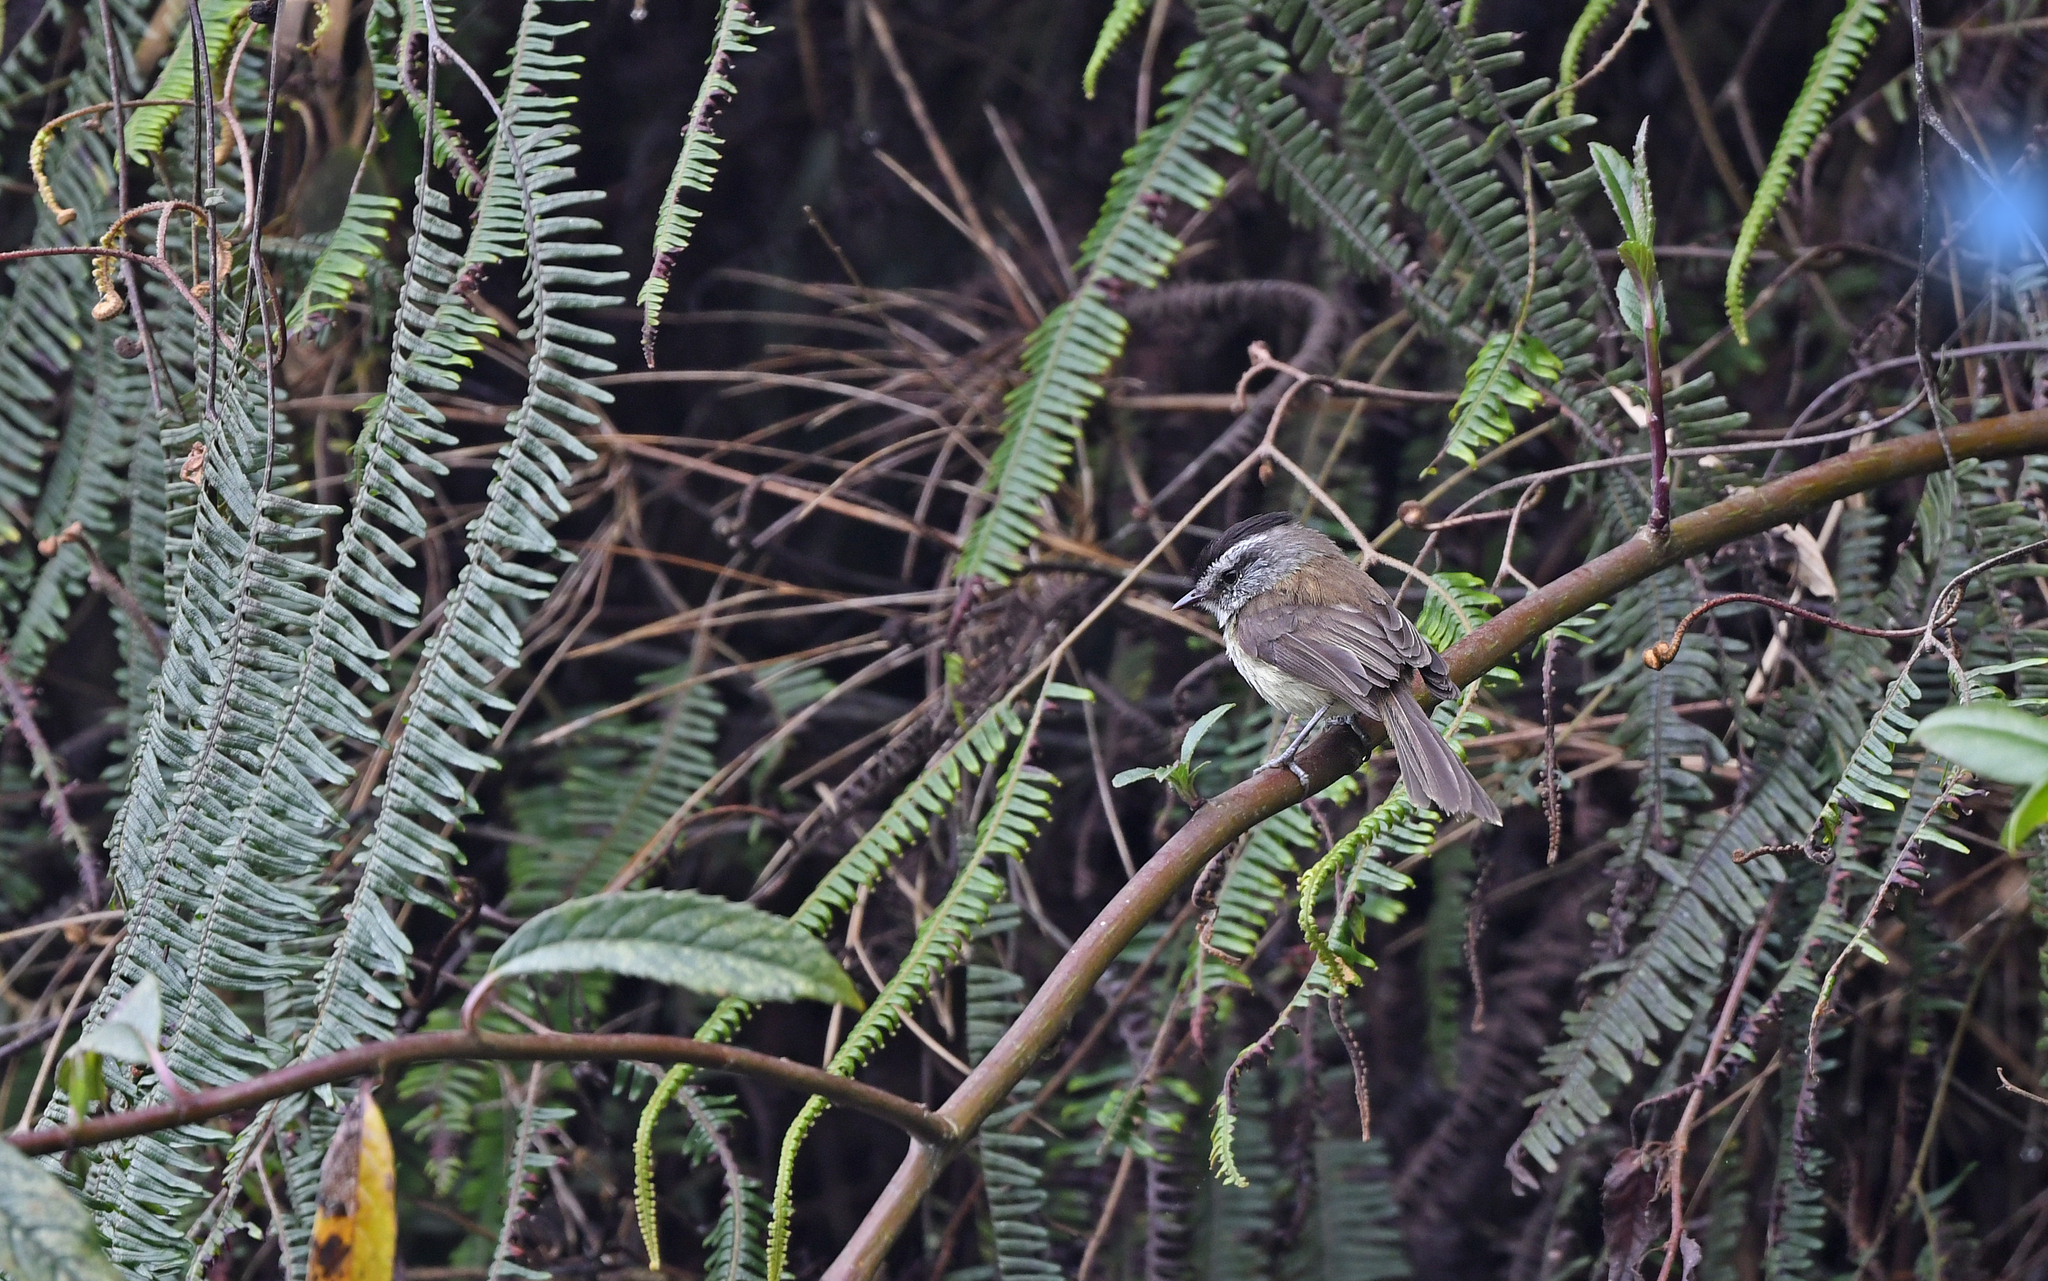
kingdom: Animalia
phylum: Chordata
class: Aves
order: Passeriformes
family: Tyrannidae
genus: Anairetes
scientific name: Anairetes agraphia
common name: Chapmans tit-tyrant
